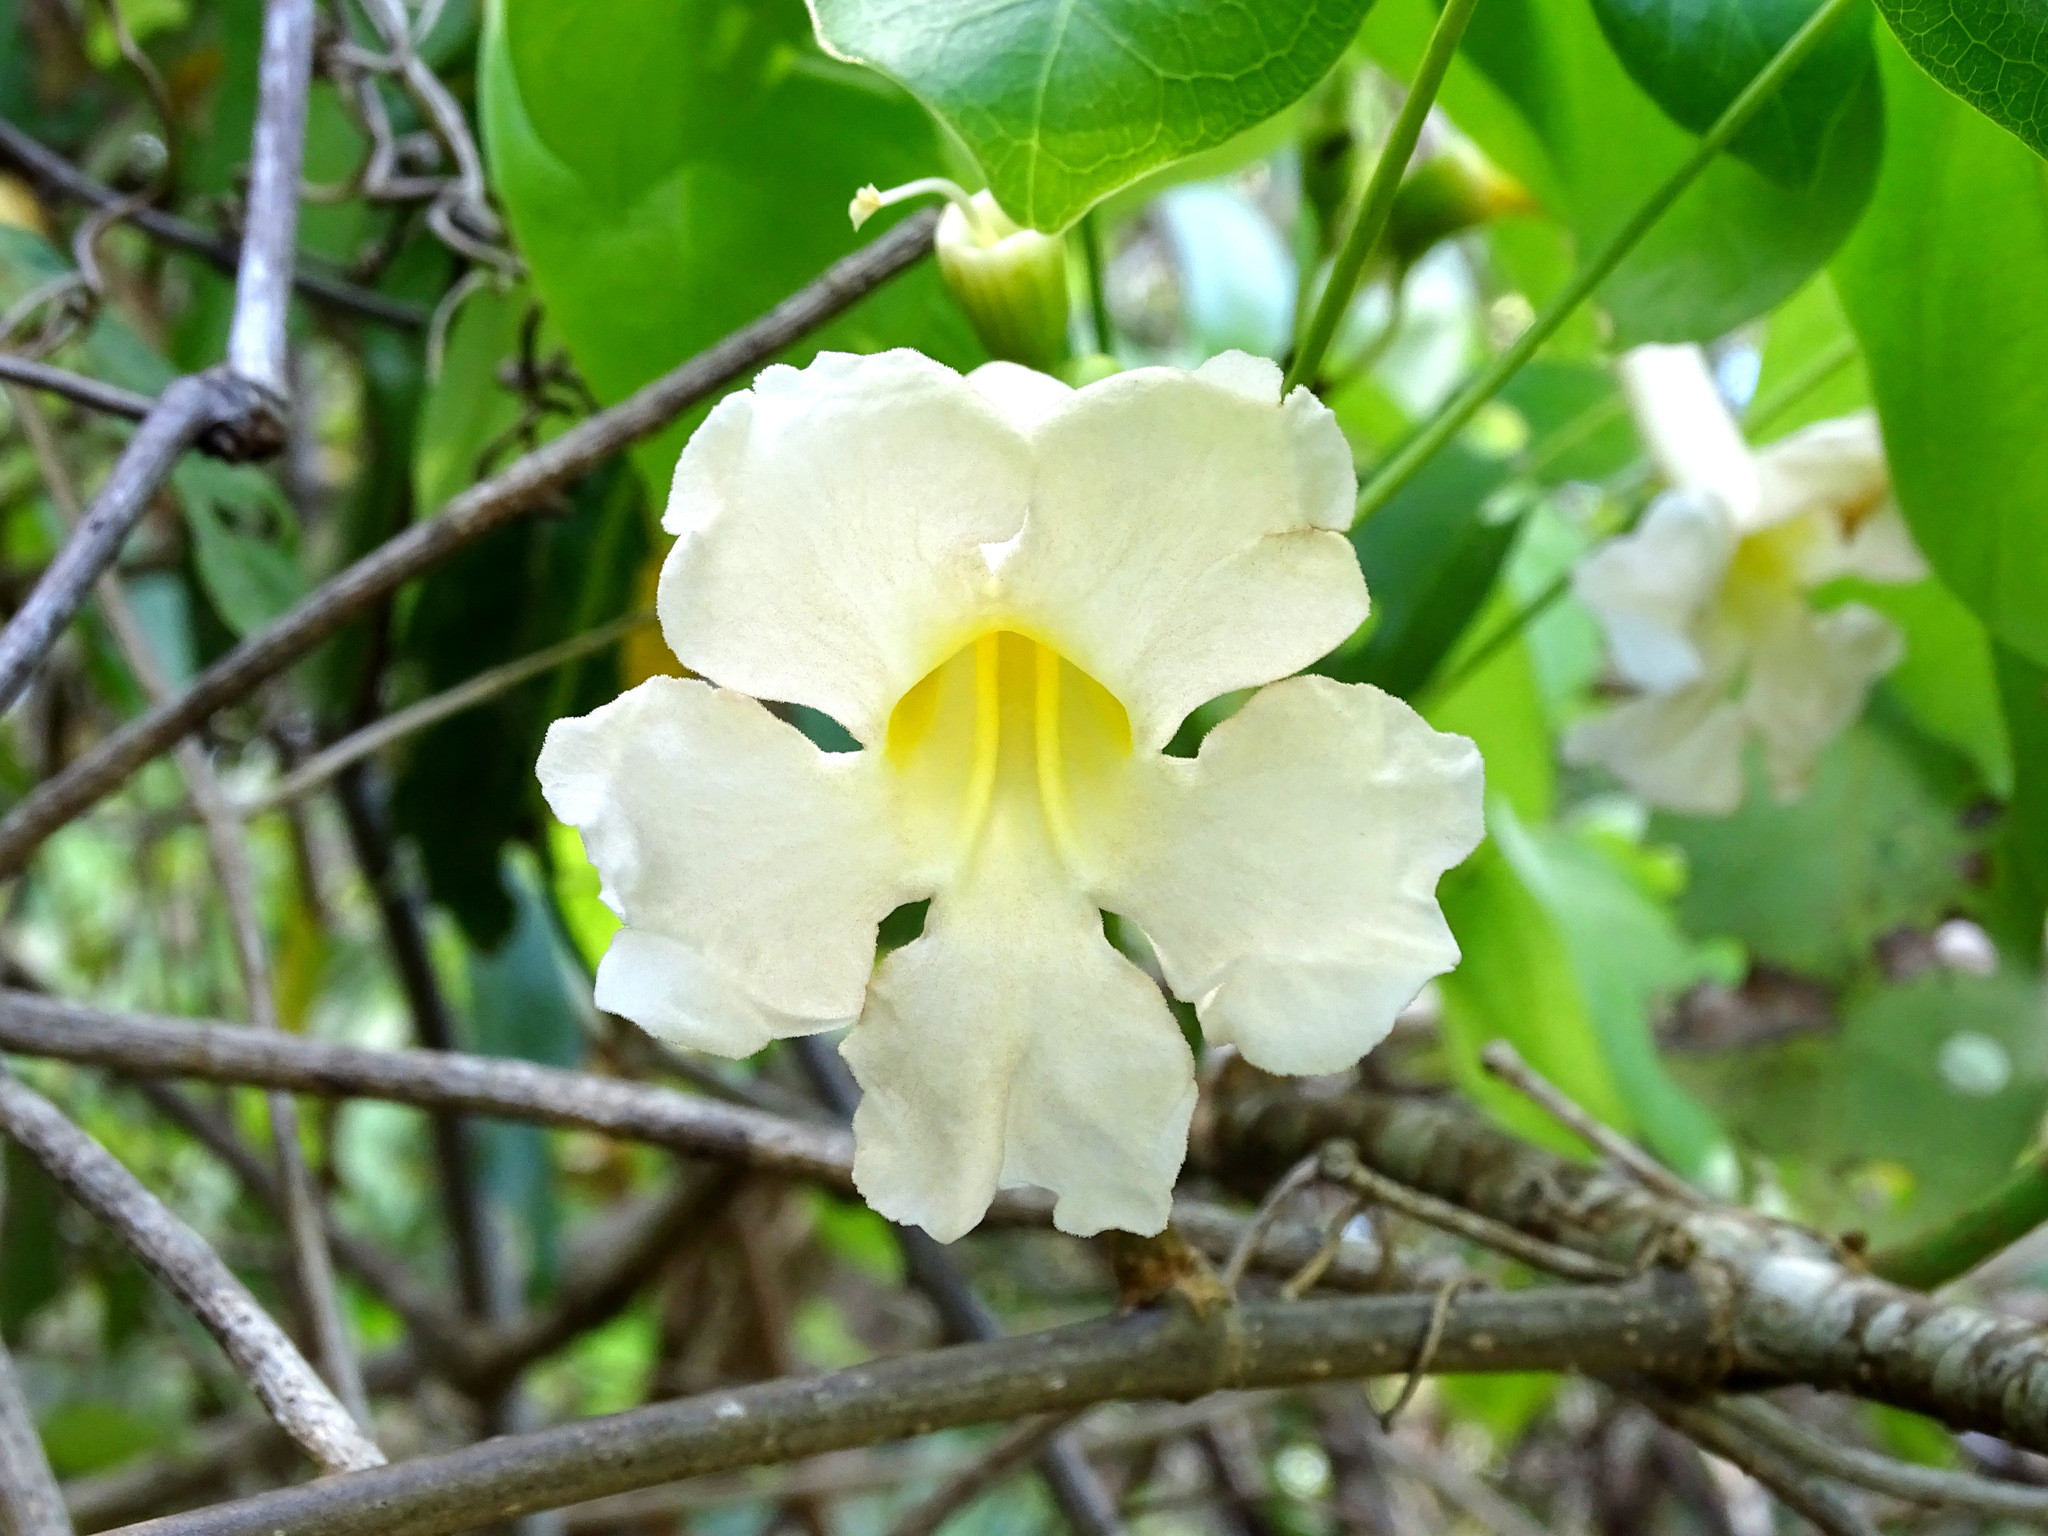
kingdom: Plantae
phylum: Tracheophyta
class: Magnoliopsida
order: Lamiales
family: Bignoniaceae
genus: Amphilophium
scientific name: Amphilophium crucigerum
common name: Monkey comb
